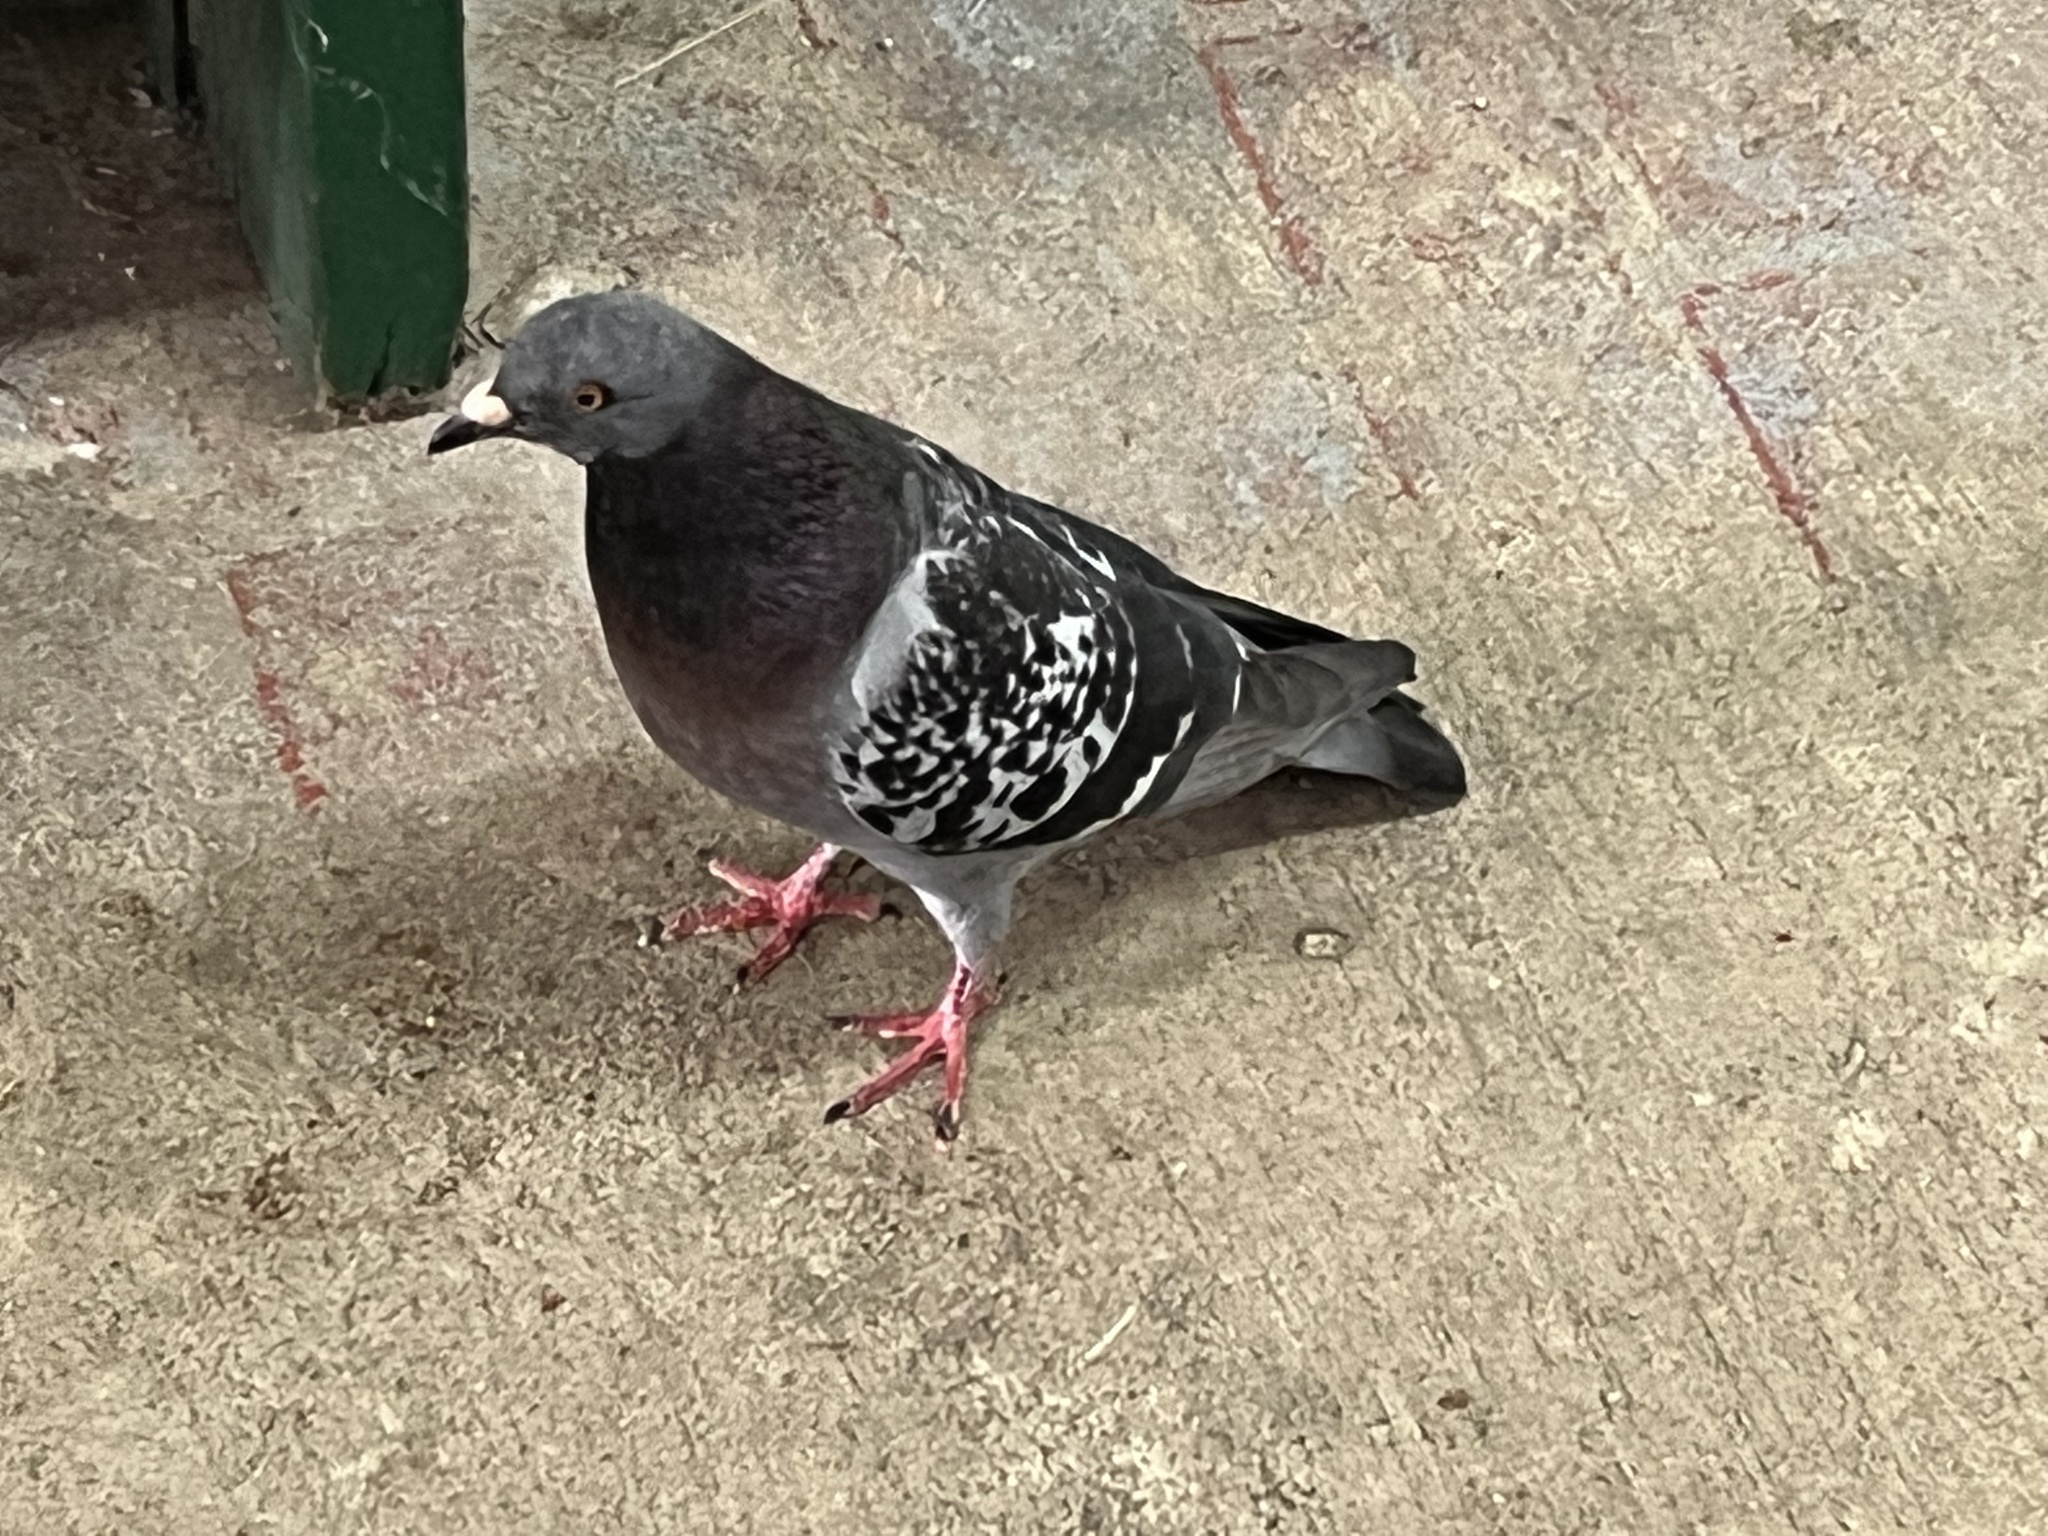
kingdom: Animalia
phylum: Chordata
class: Aves
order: Columbiformes
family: Columbidae
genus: Columba
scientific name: Columba livia
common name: Rock pigeon
